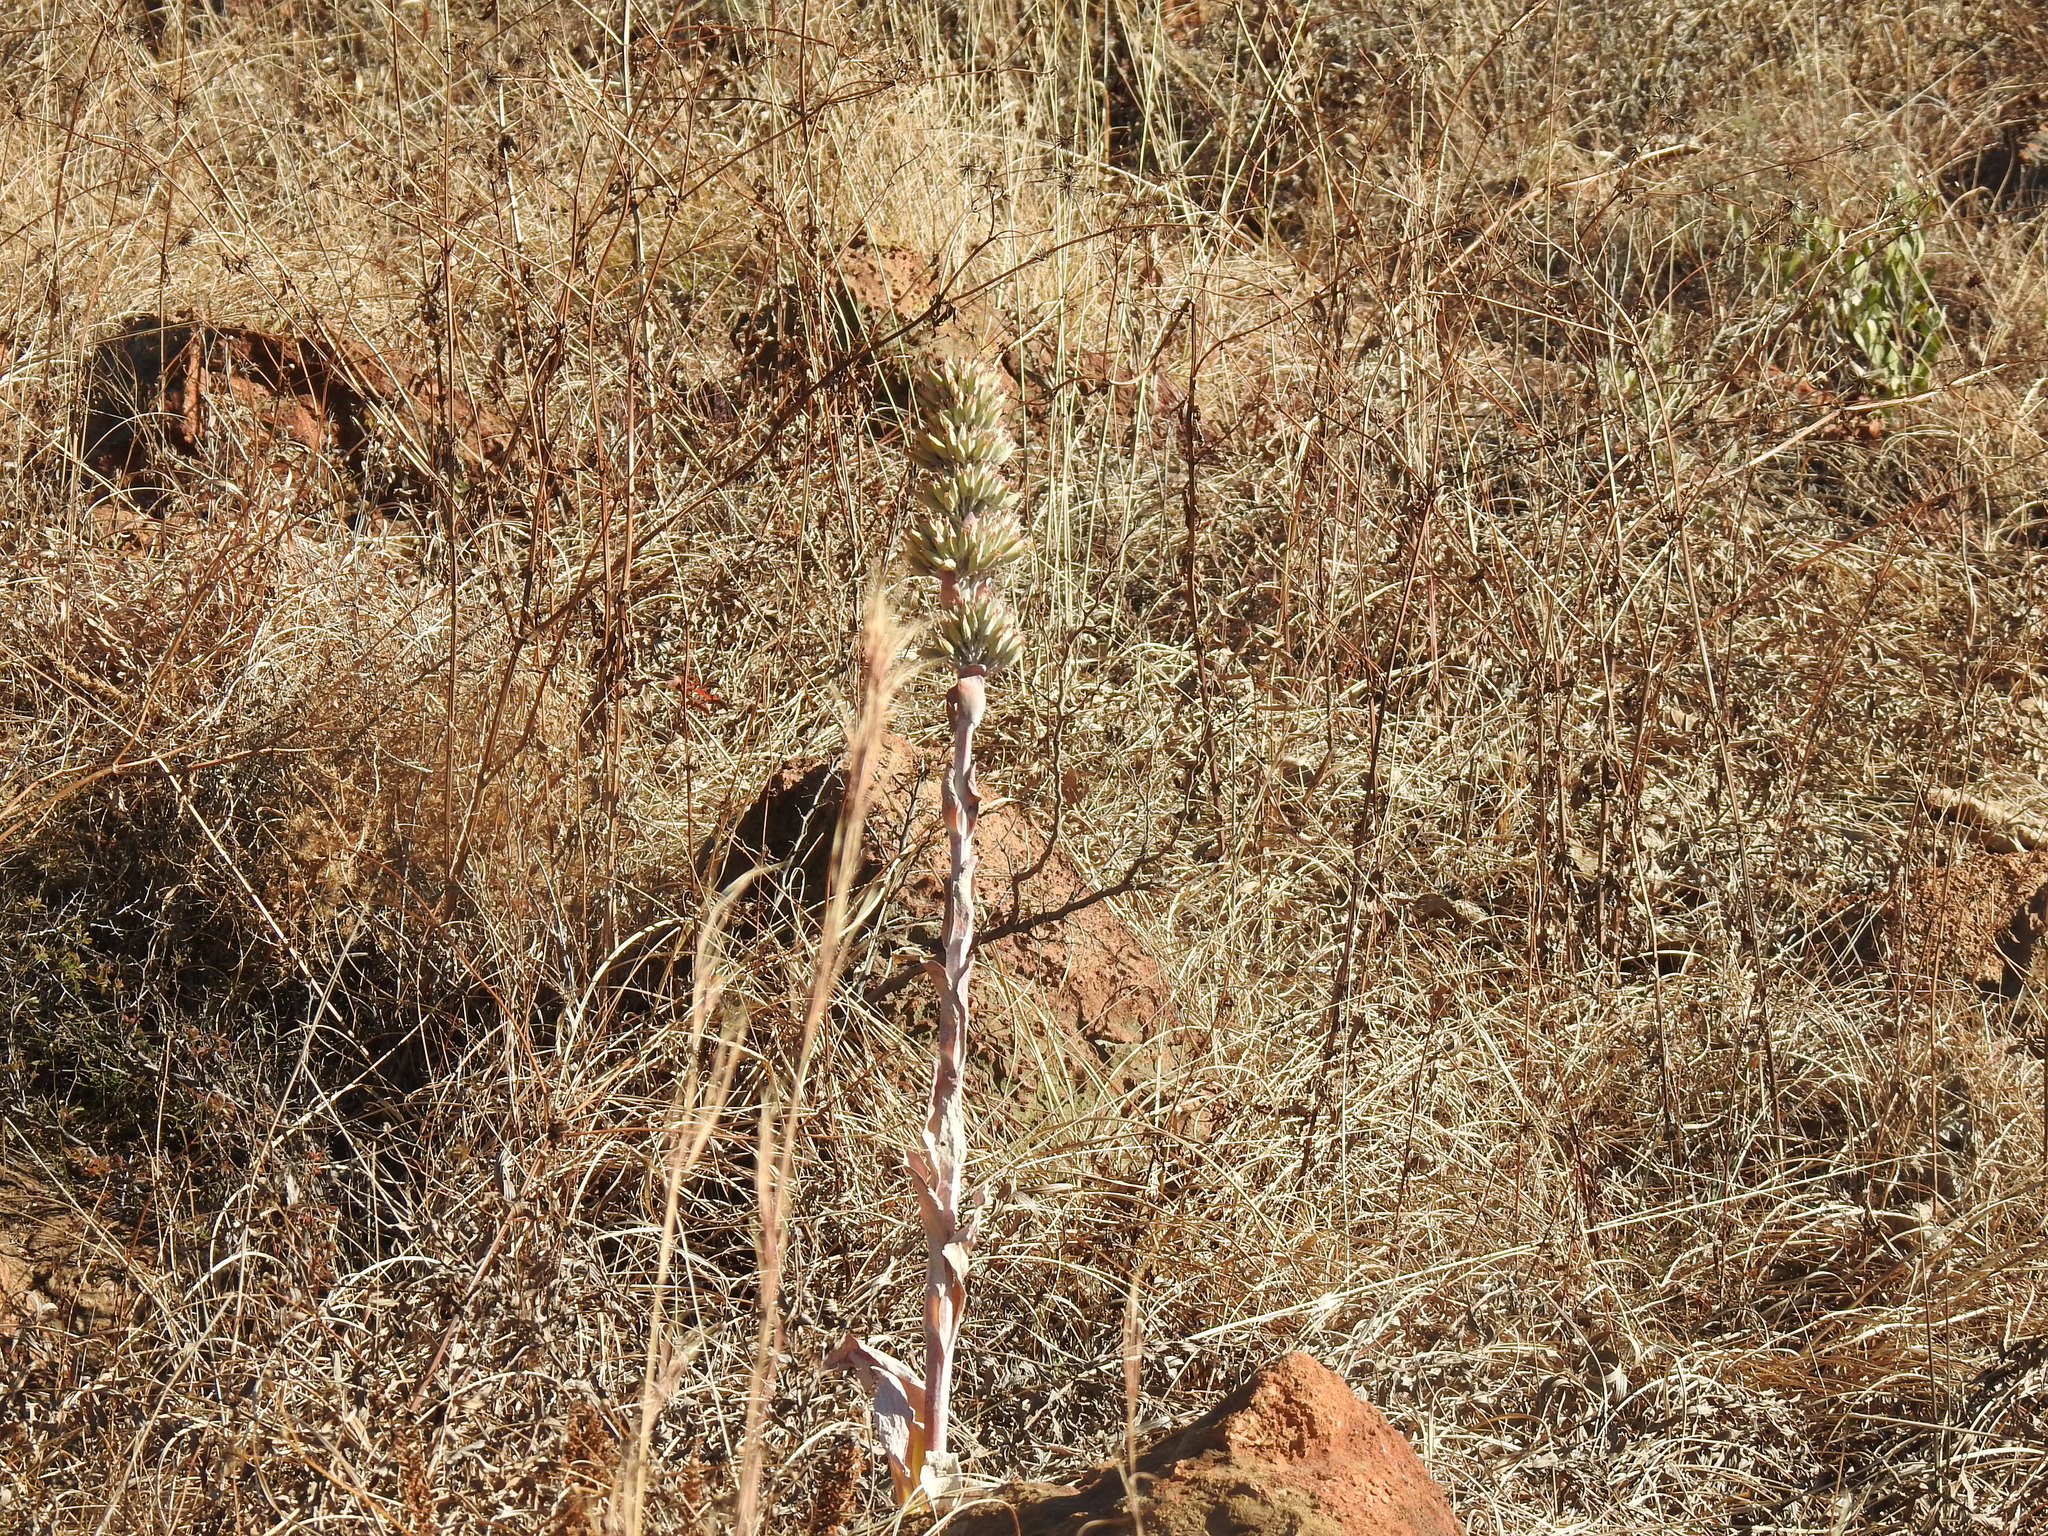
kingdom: Plantae
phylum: Tracheophyta
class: Magnoliopsida
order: Saxifragales
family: Crassulaceae
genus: Kalanchoe
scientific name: Kalanchoe thyrsiflora
